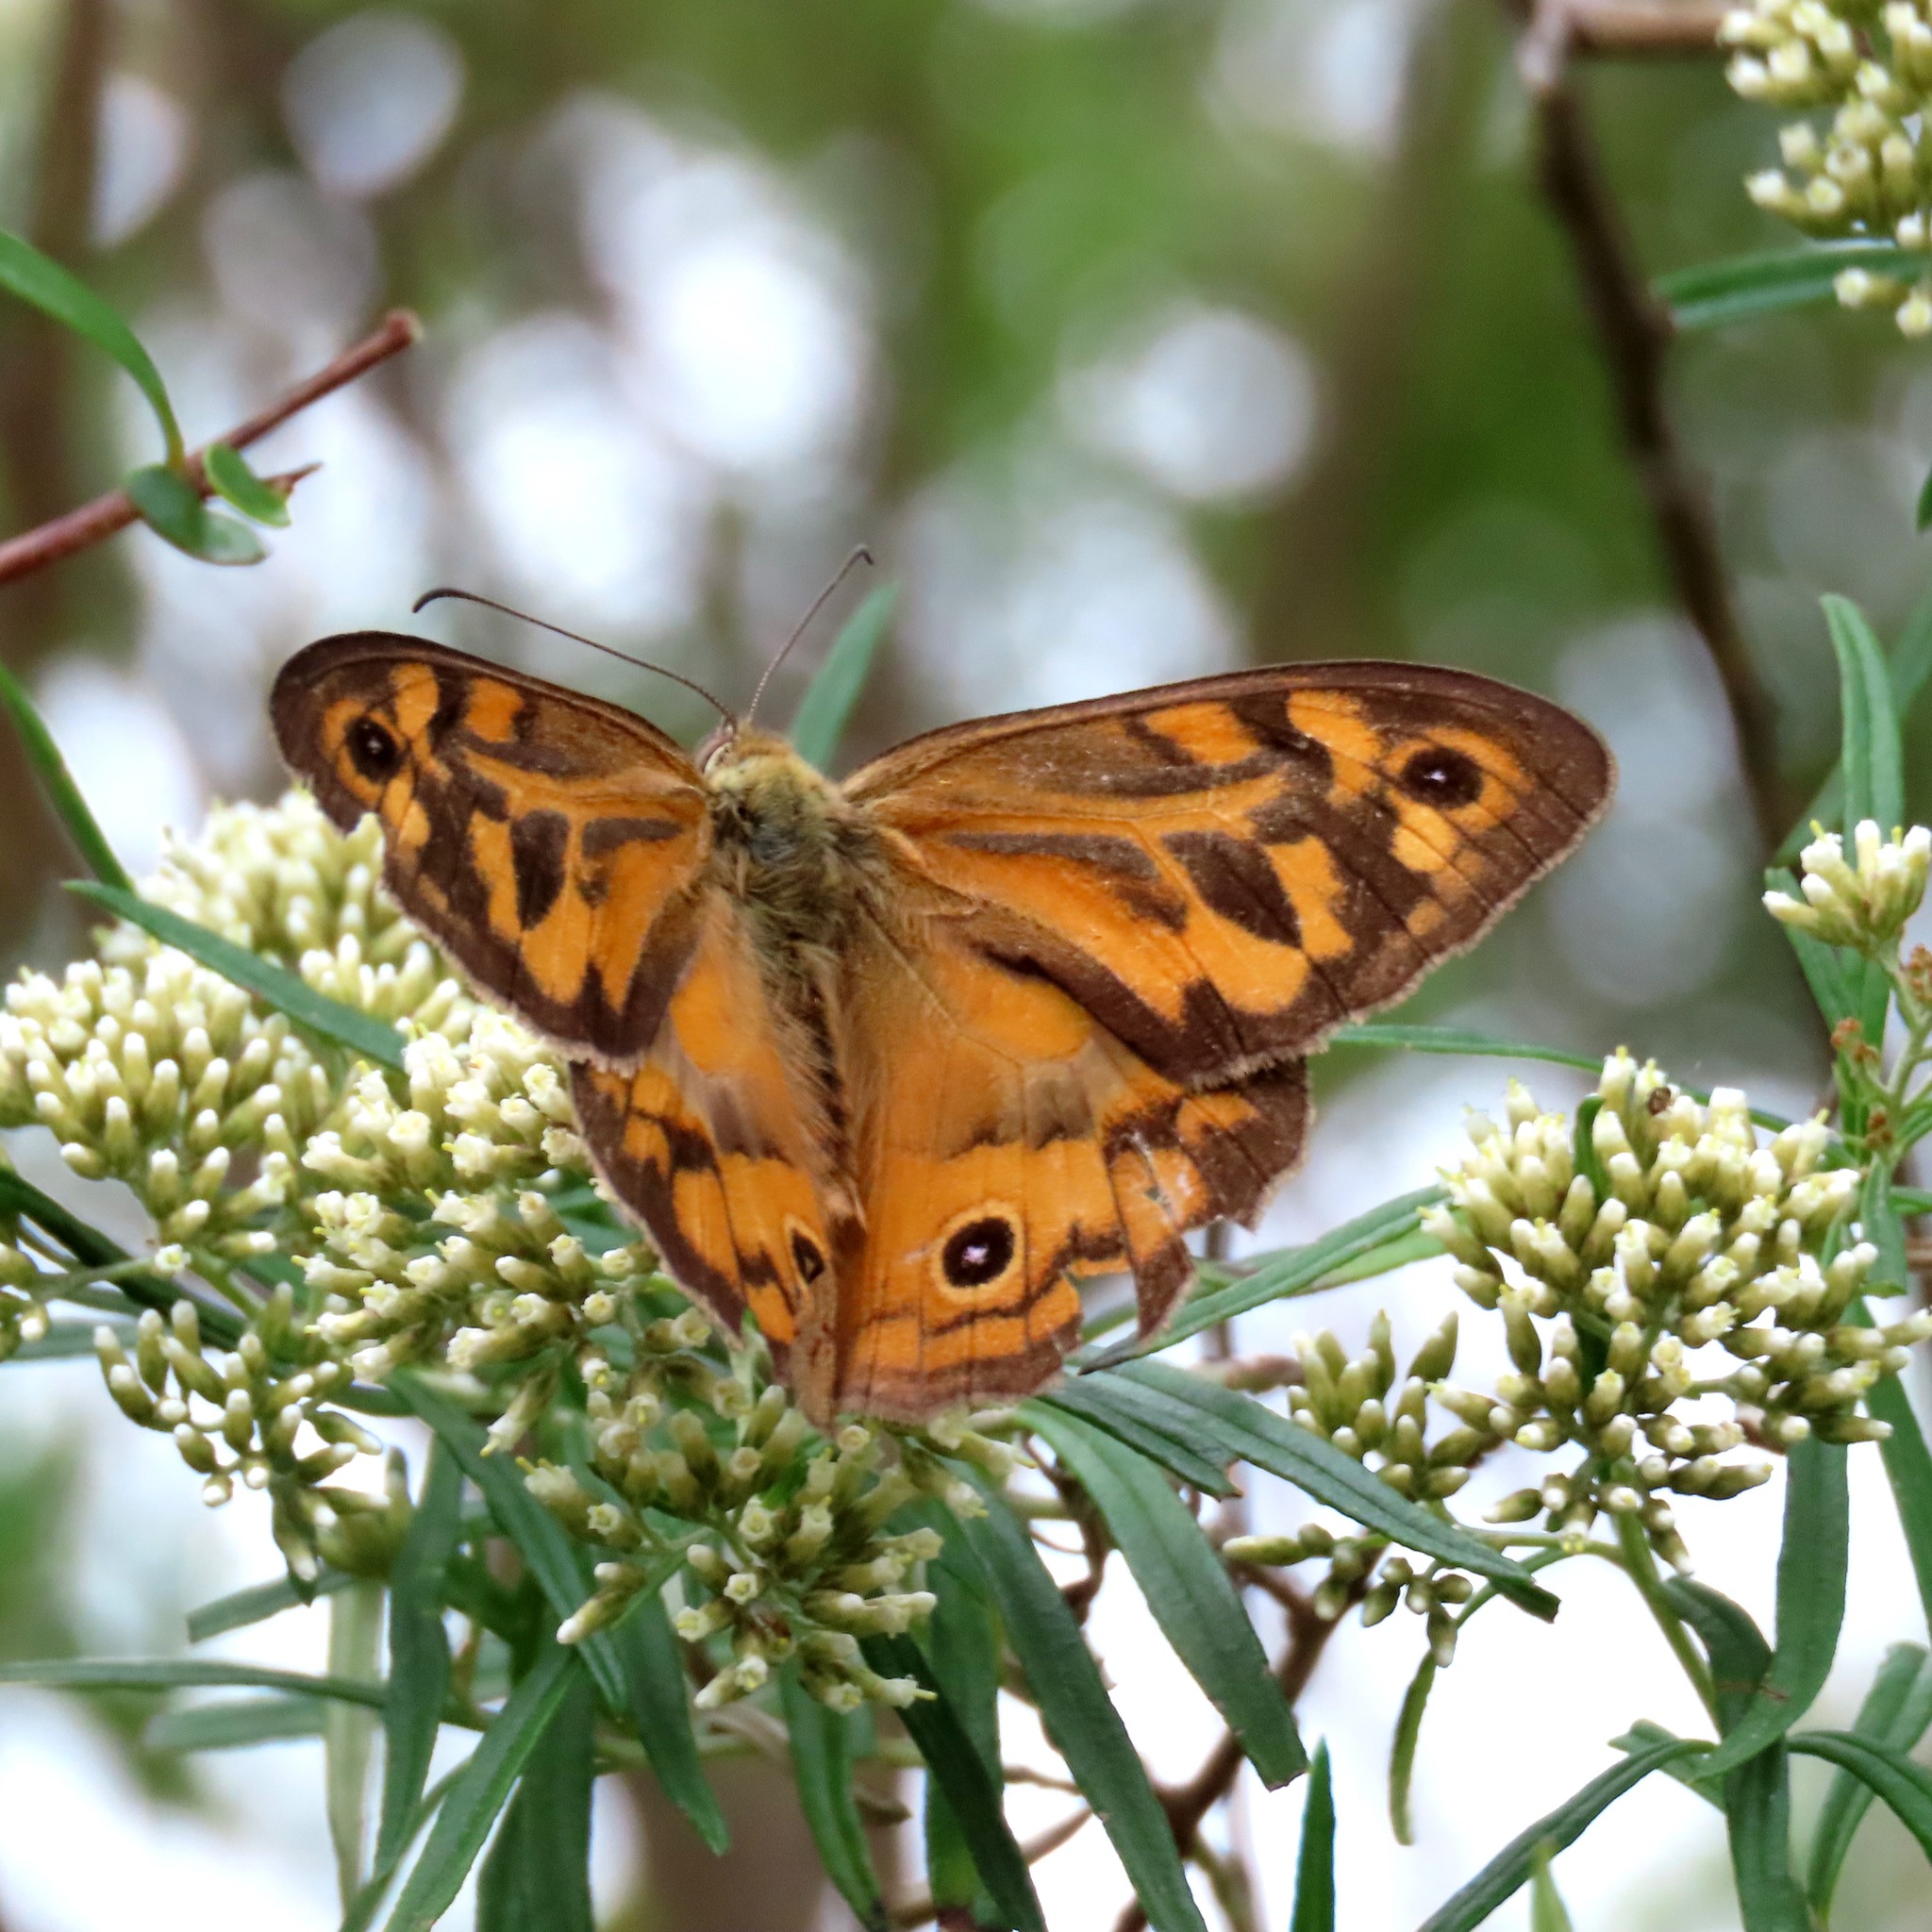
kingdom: Animalia
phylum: Arthropoda
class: Insecta
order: Lepidoptera
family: Nymphalidae
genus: Heteronympha
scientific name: Heteronympha merope
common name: Common brown
